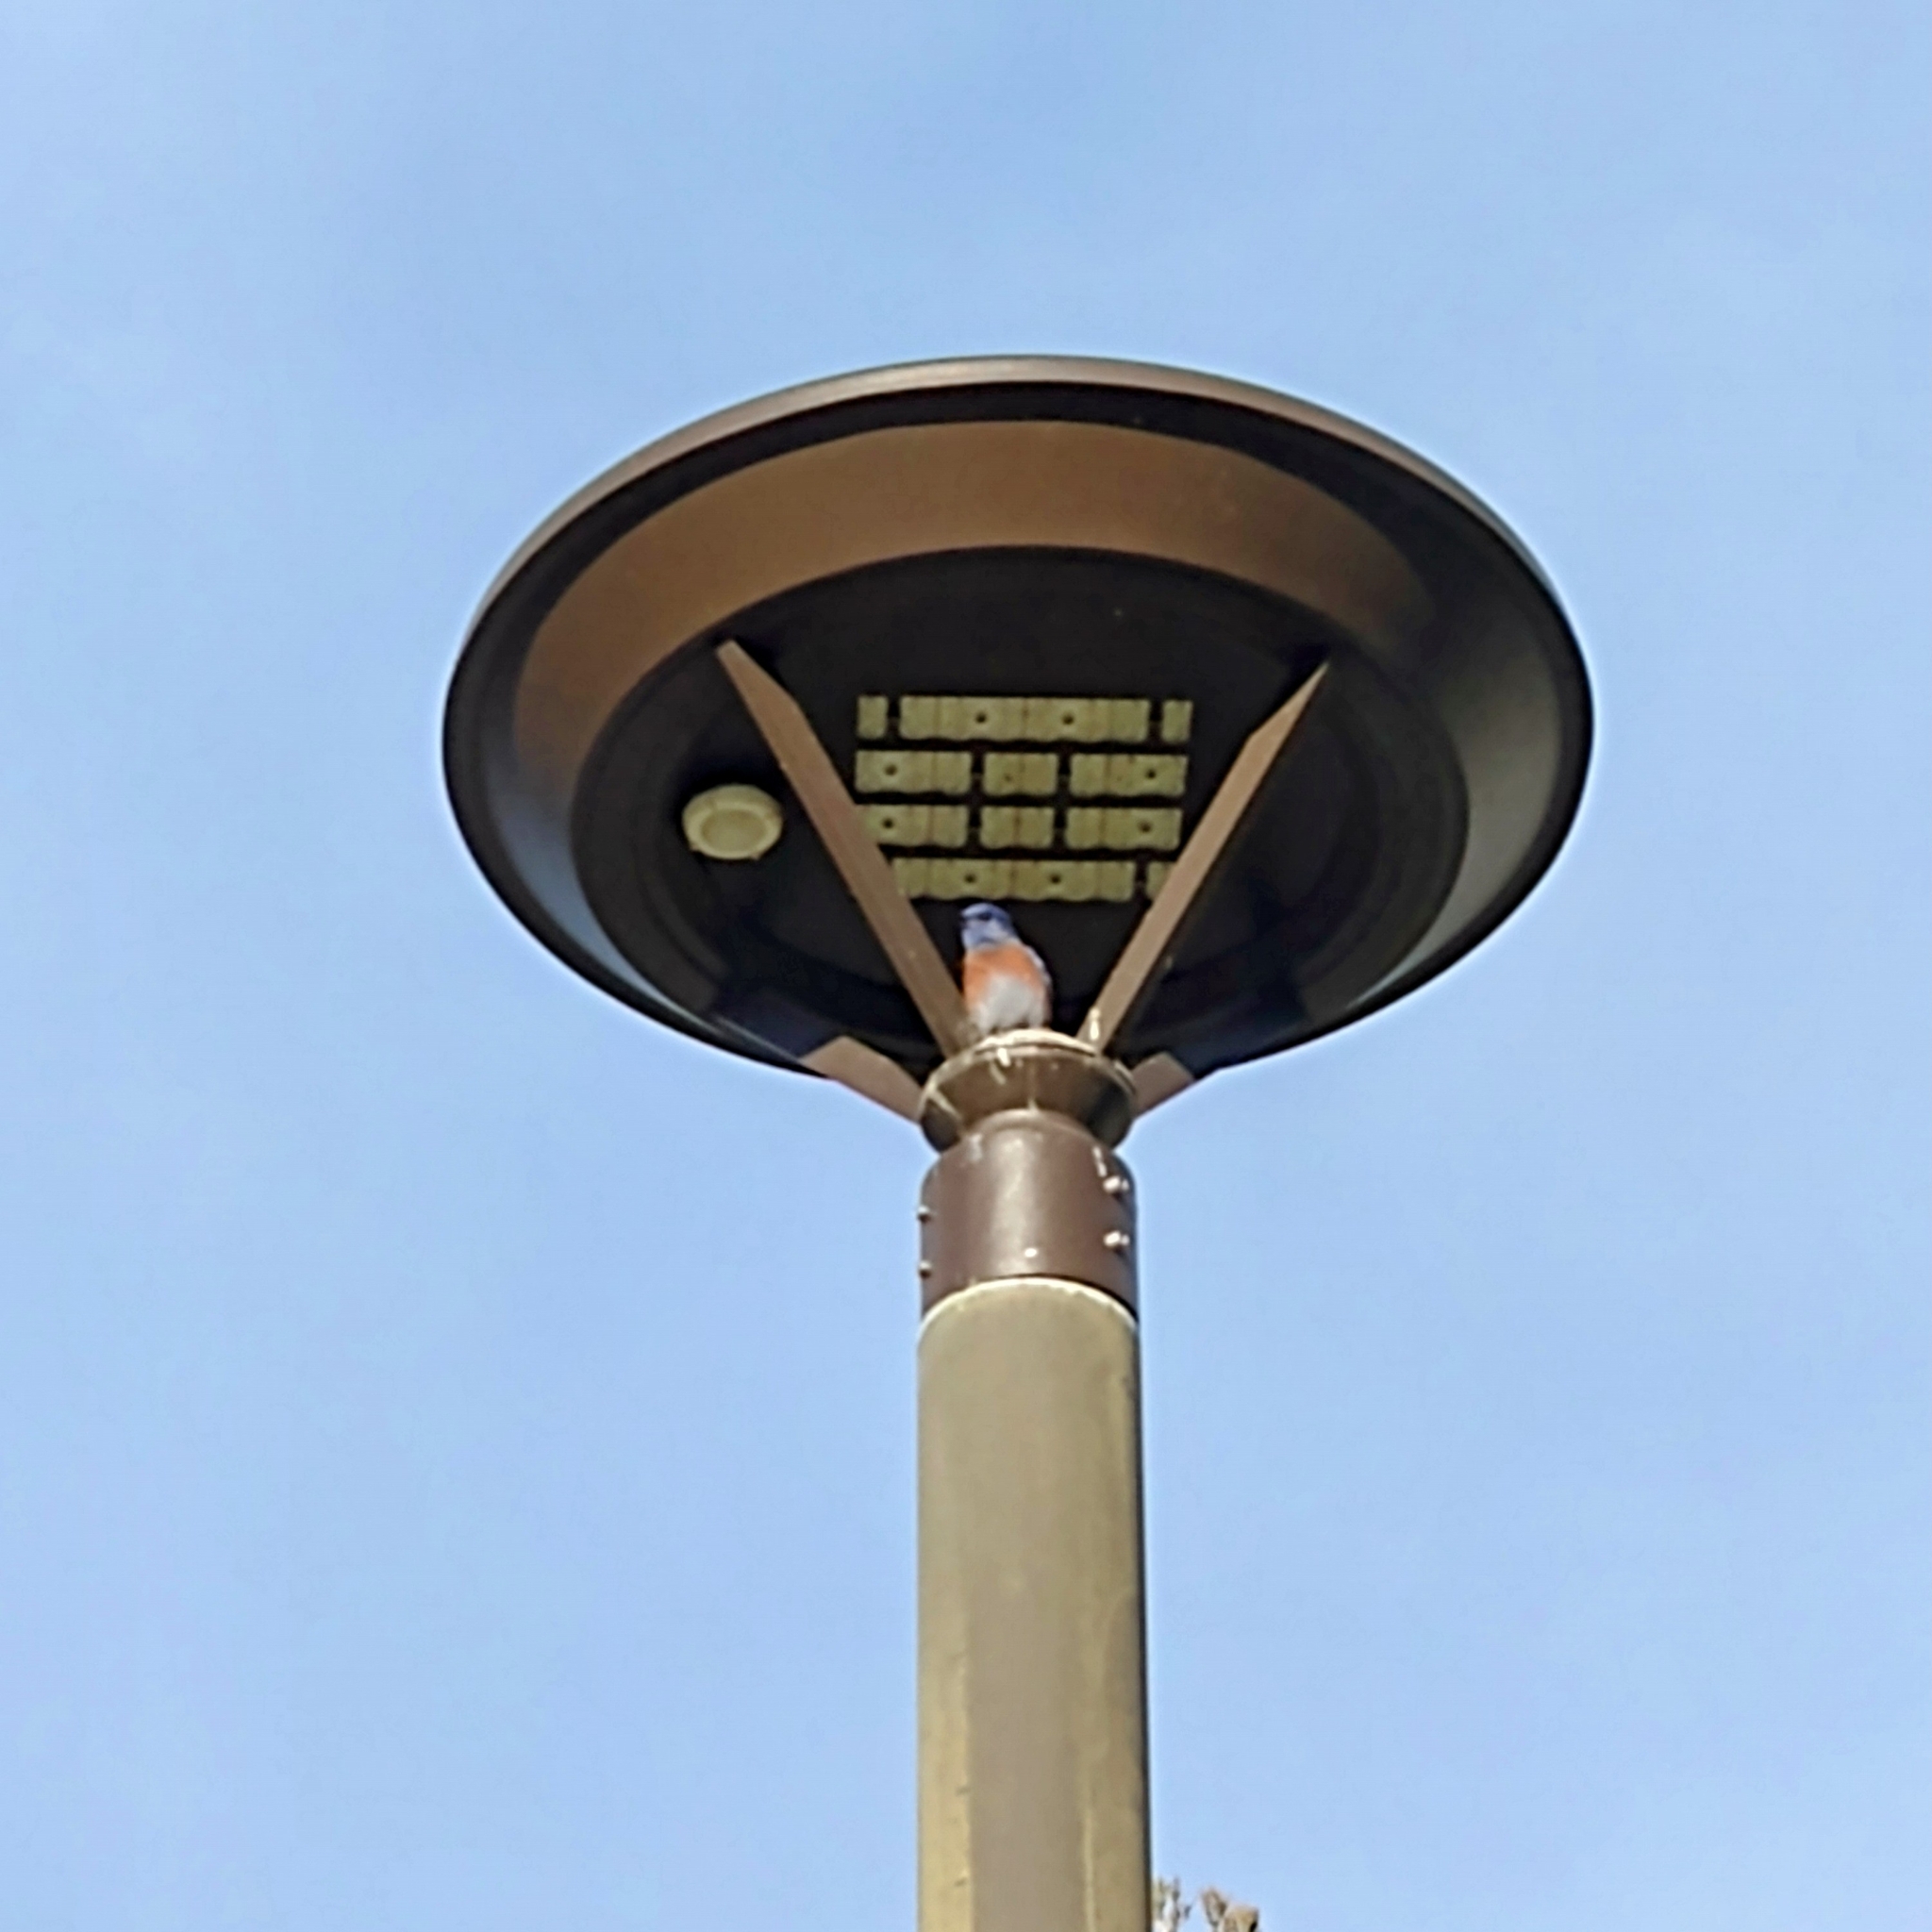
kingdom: Animalia
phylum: Chordata
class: Aves
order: Passeriformes
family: Turdidae
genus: Sialia
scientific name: Sialia mexicana
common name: Western bluebird
